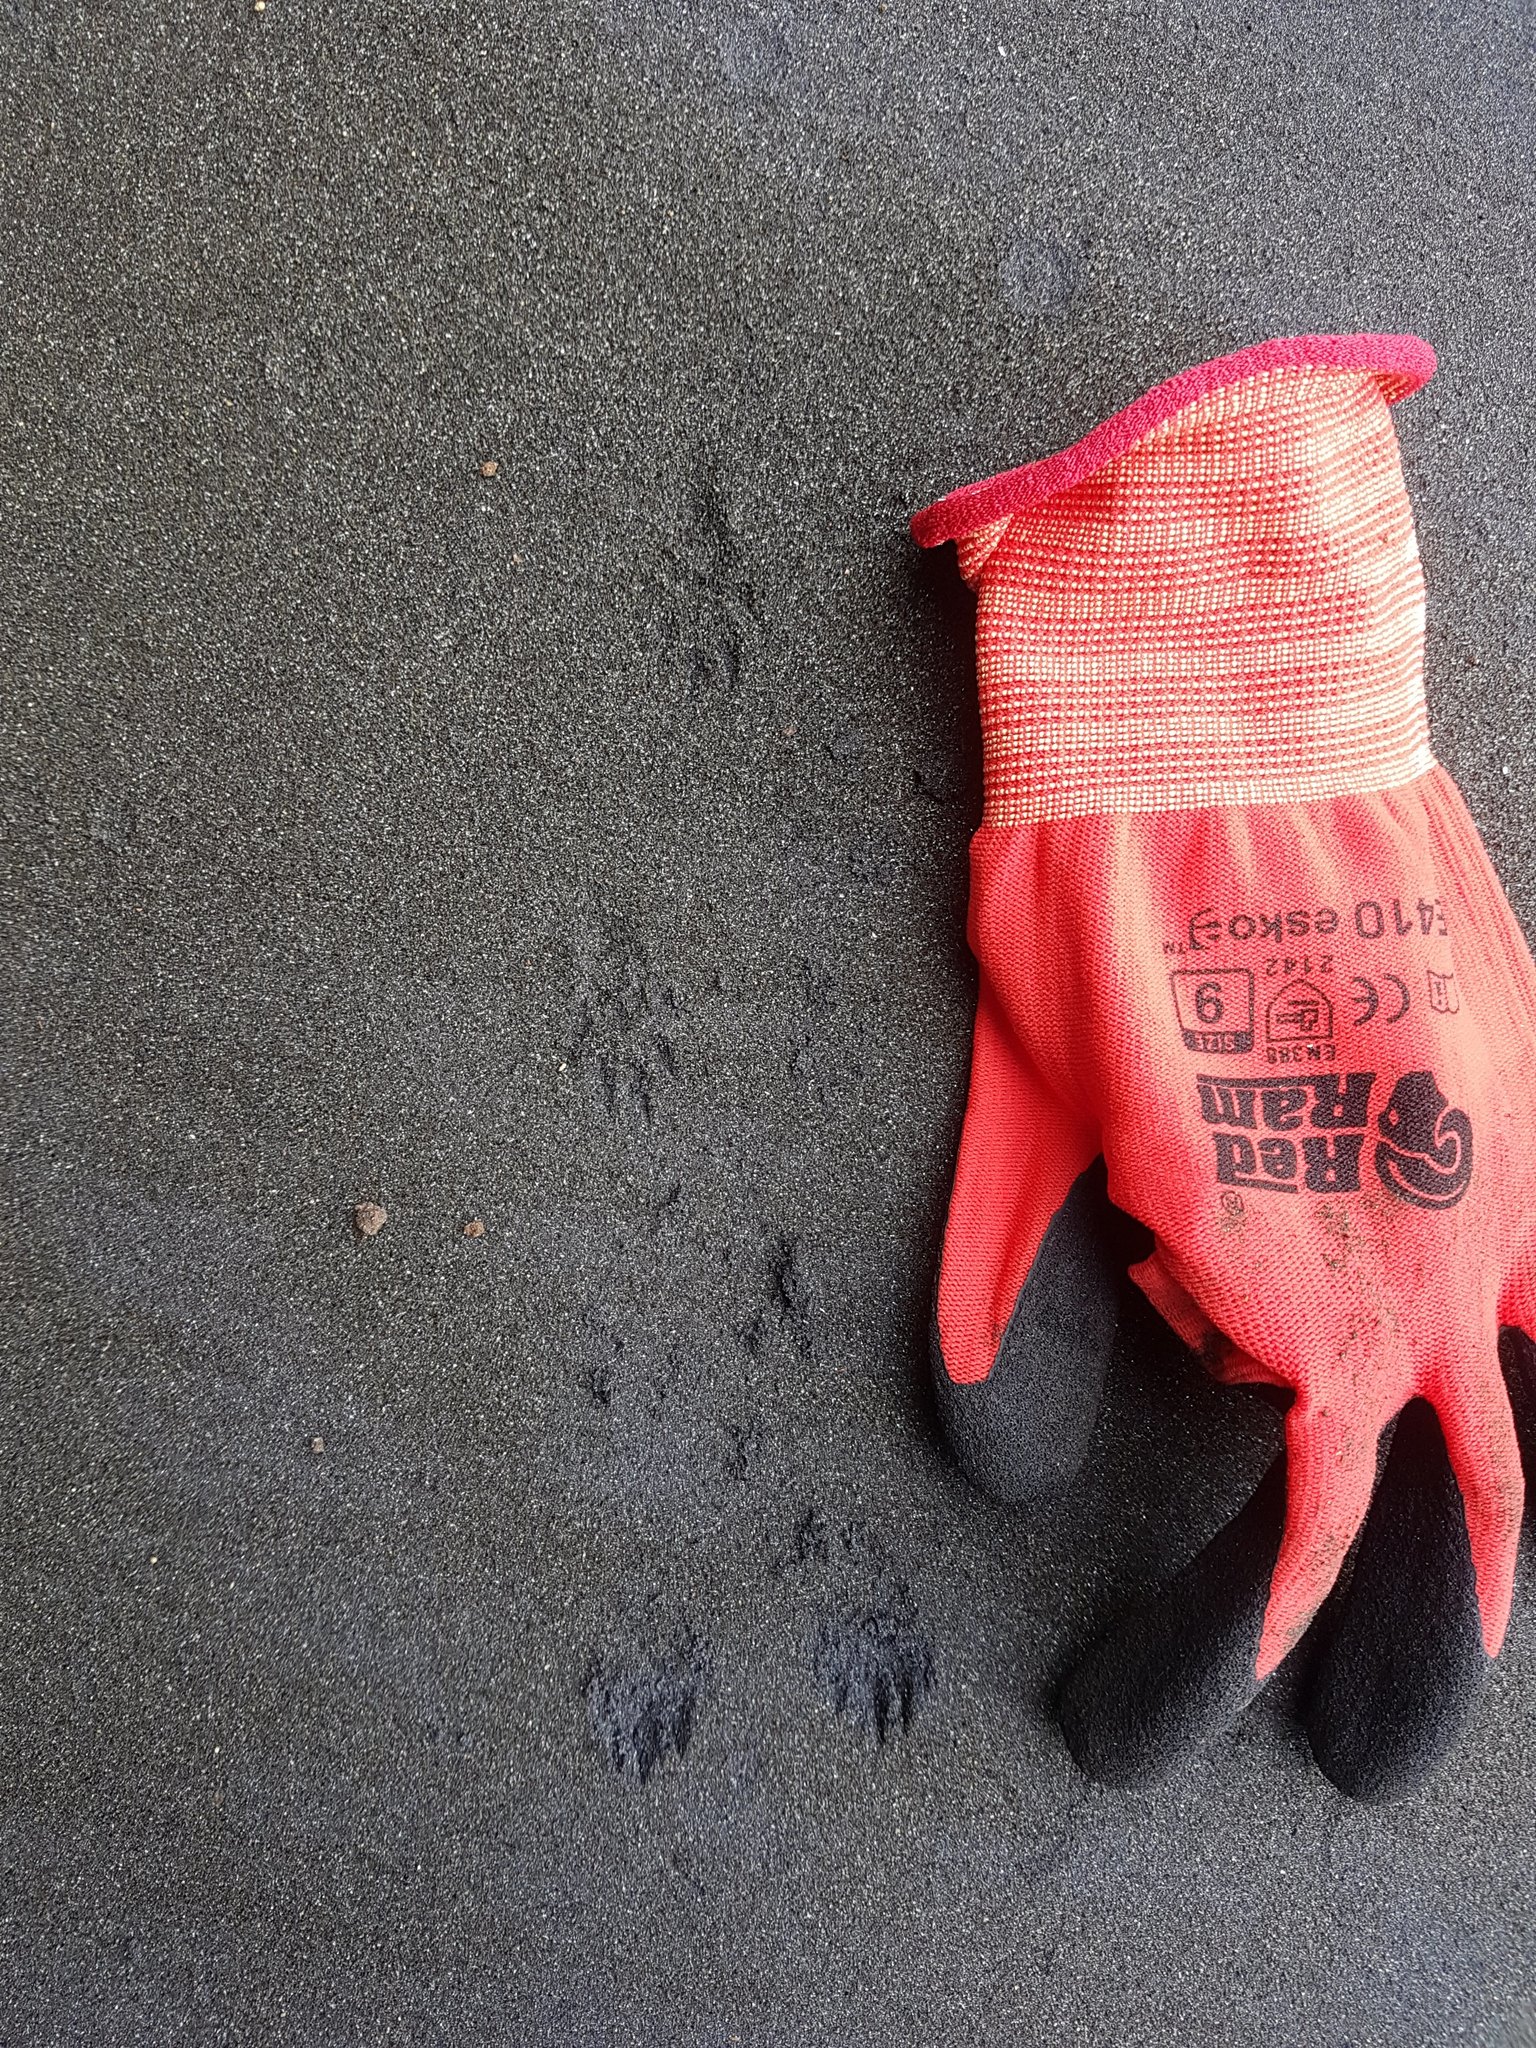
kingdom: Animalia
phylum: Chordata
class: Mammalia
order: Carnivora
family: Mustelidae
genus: Mustela
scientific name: Mustela erminea
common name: Stoat
